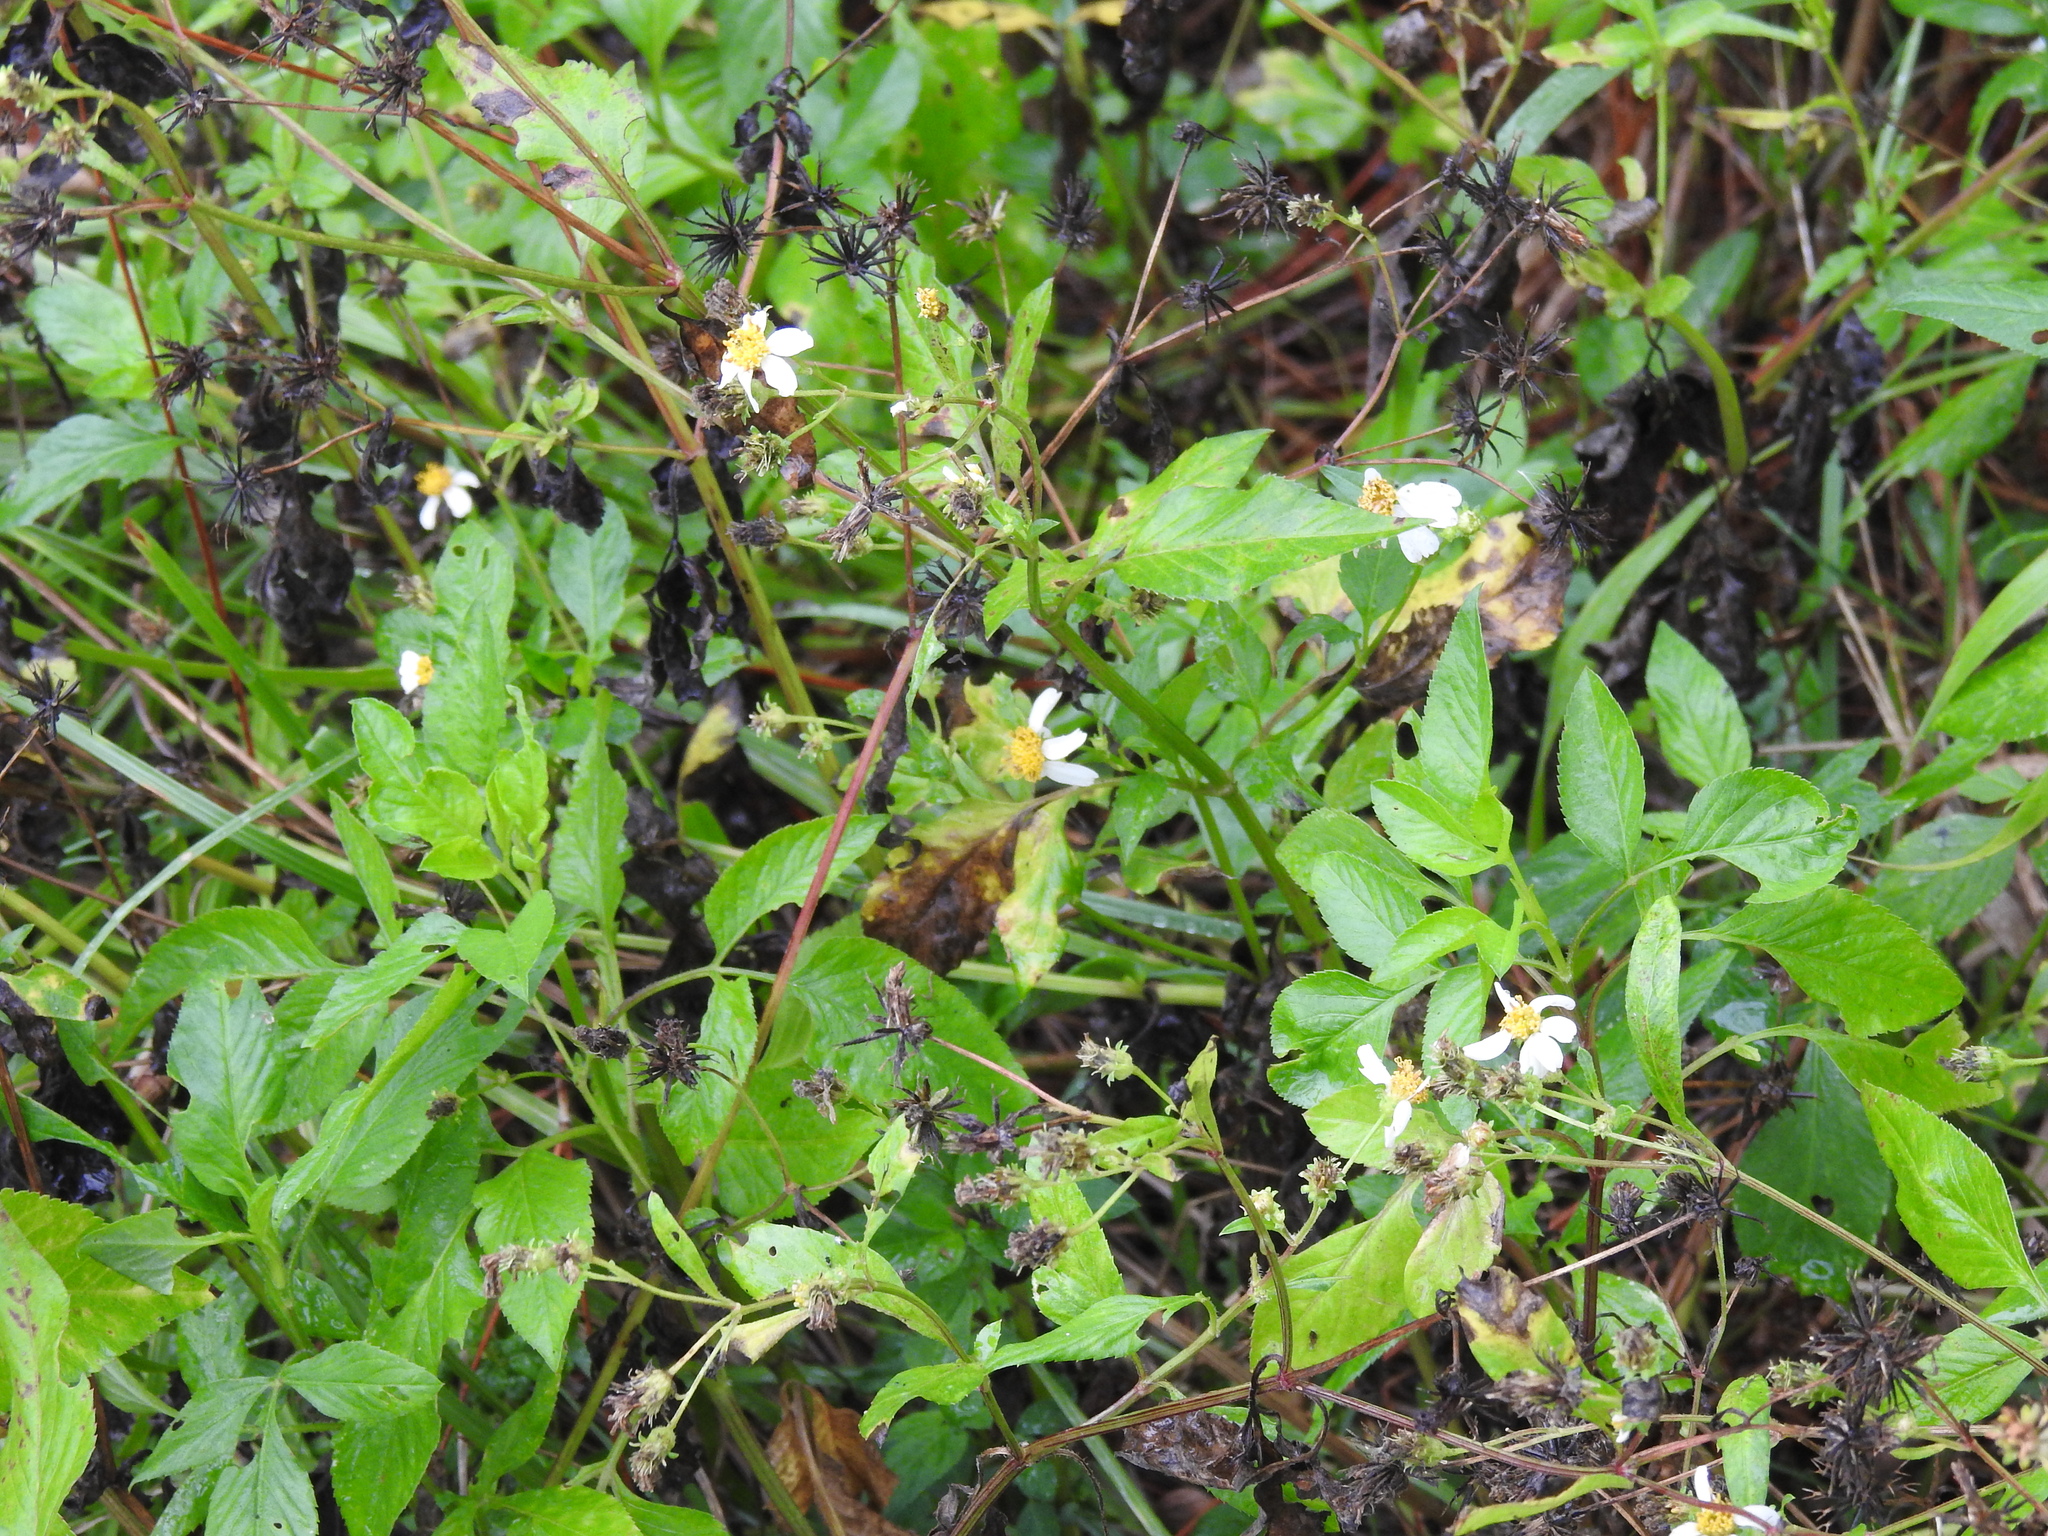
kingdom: Plantae
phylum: Tracheophyta
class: Magnoliopsida
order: Asterales
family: Asteraceae
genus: Bidens
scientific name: Bidens alba
